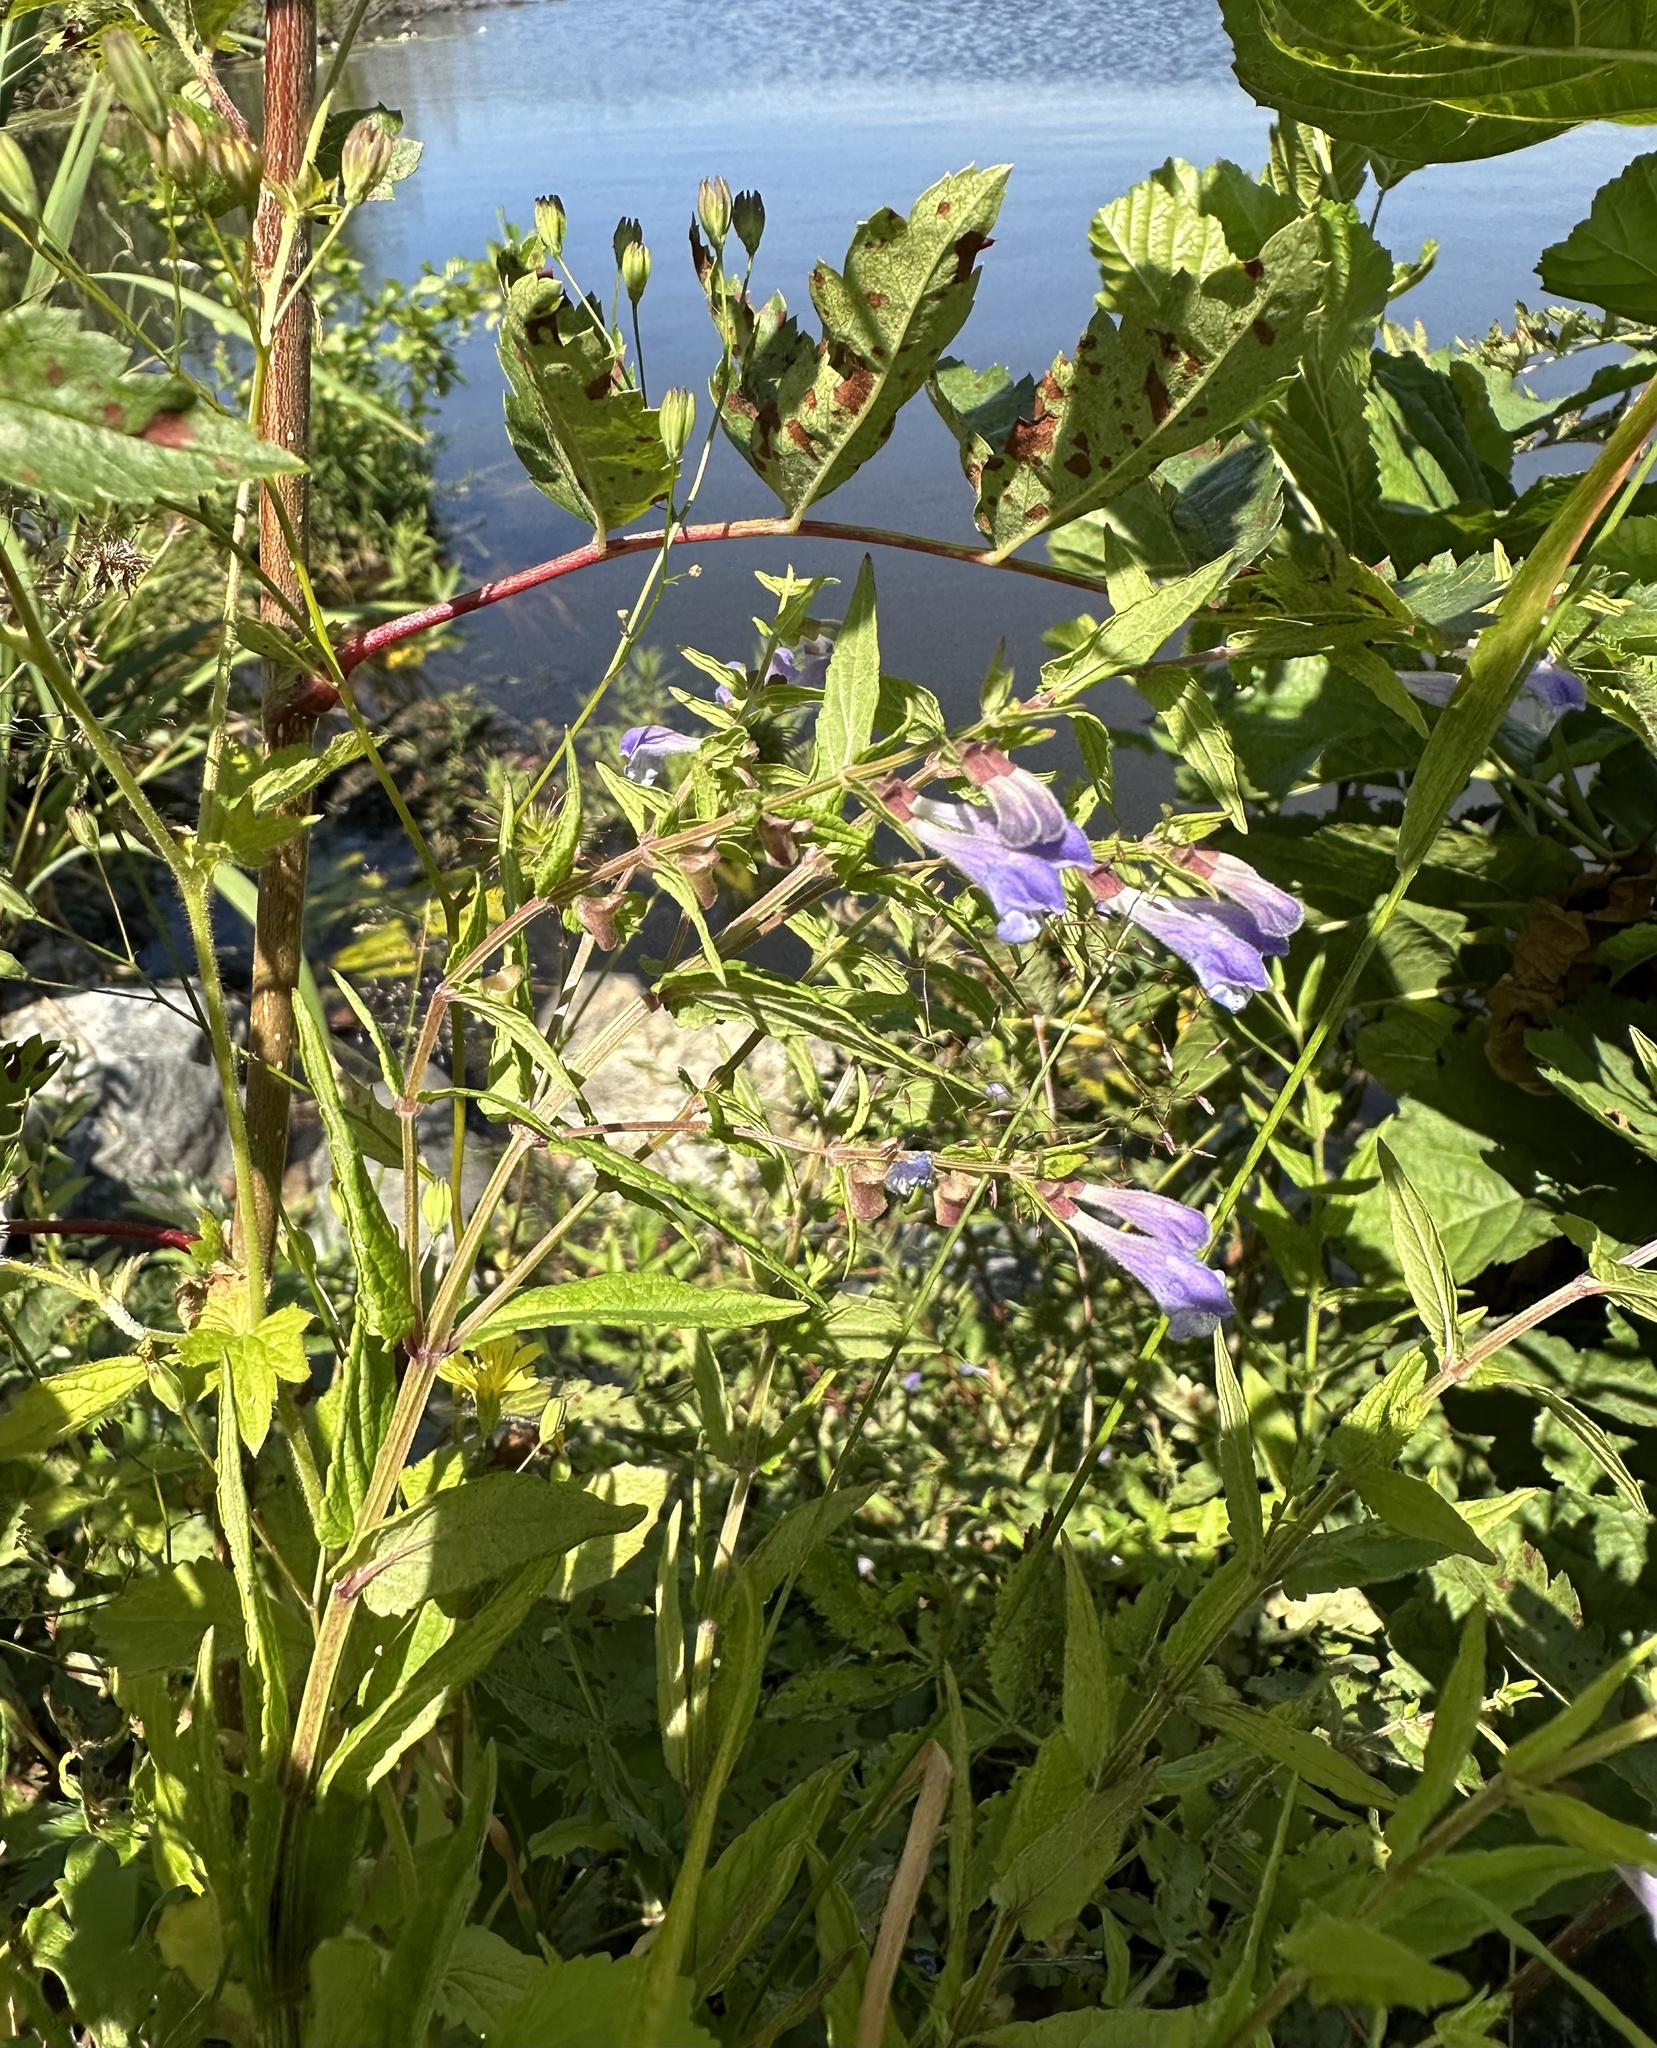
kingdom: Plantae
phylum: Tracheophyta
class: Magnoliopsida
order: Lamiales
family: Lamiaceae
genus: Scutellaria
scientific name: Scutellaria galericulata
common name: Skullcap
